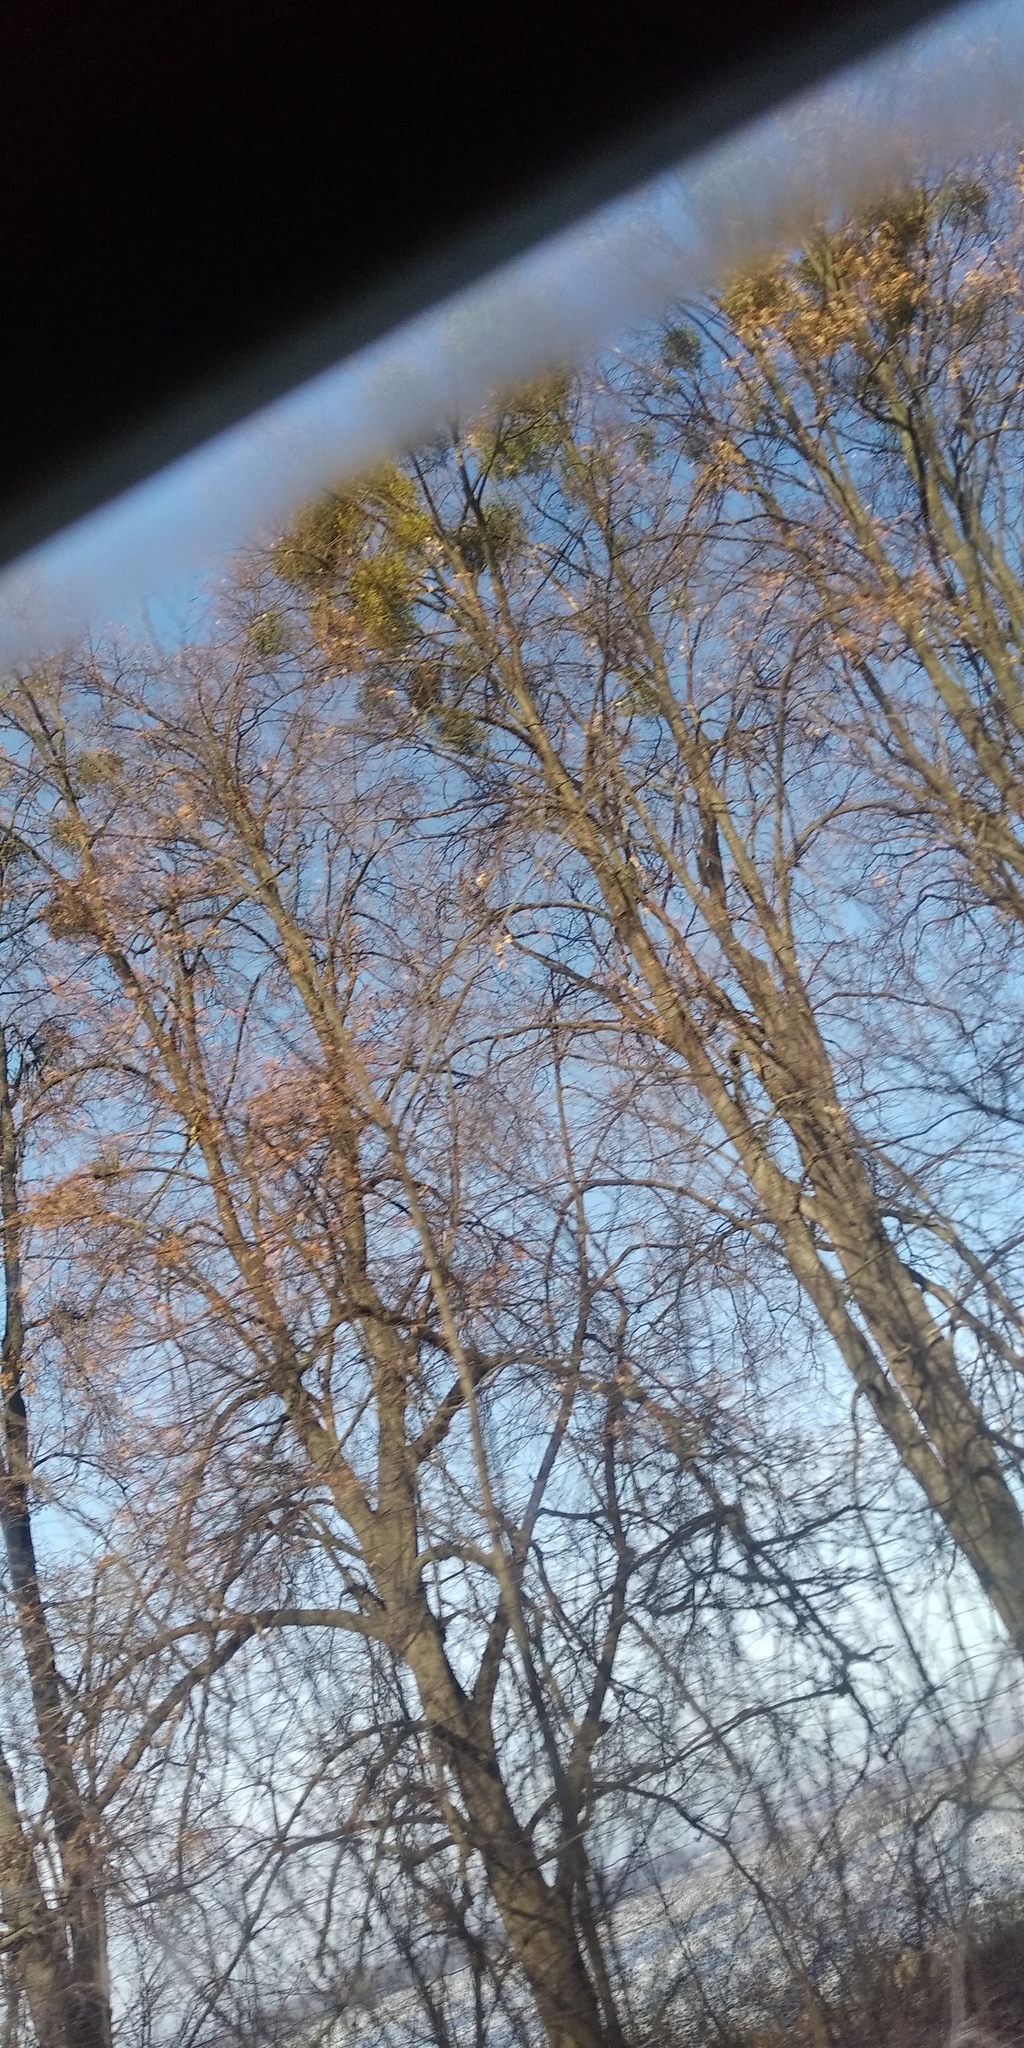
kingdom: Plantae
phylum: Tracheophyta
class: Magnoliopsida
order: Santalales
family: Viscaceae
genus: Viscum
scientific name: Viscum album
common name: Mistletoe
